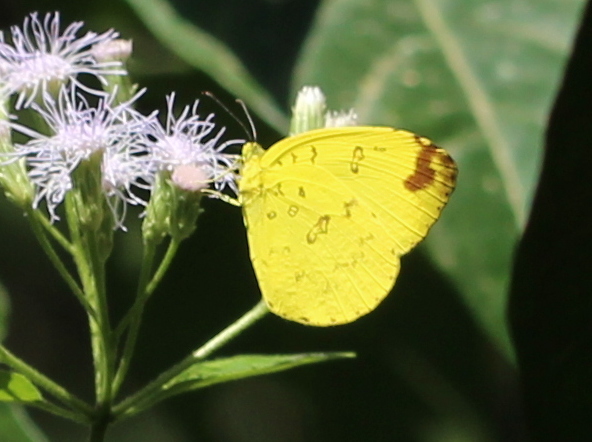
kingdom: Animalia
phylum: Arthropoda
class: Insecta
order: Lepidoptera
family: Pieridae
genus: Eurema
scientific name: Eurema blanda
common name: Three-spot grass yellow
